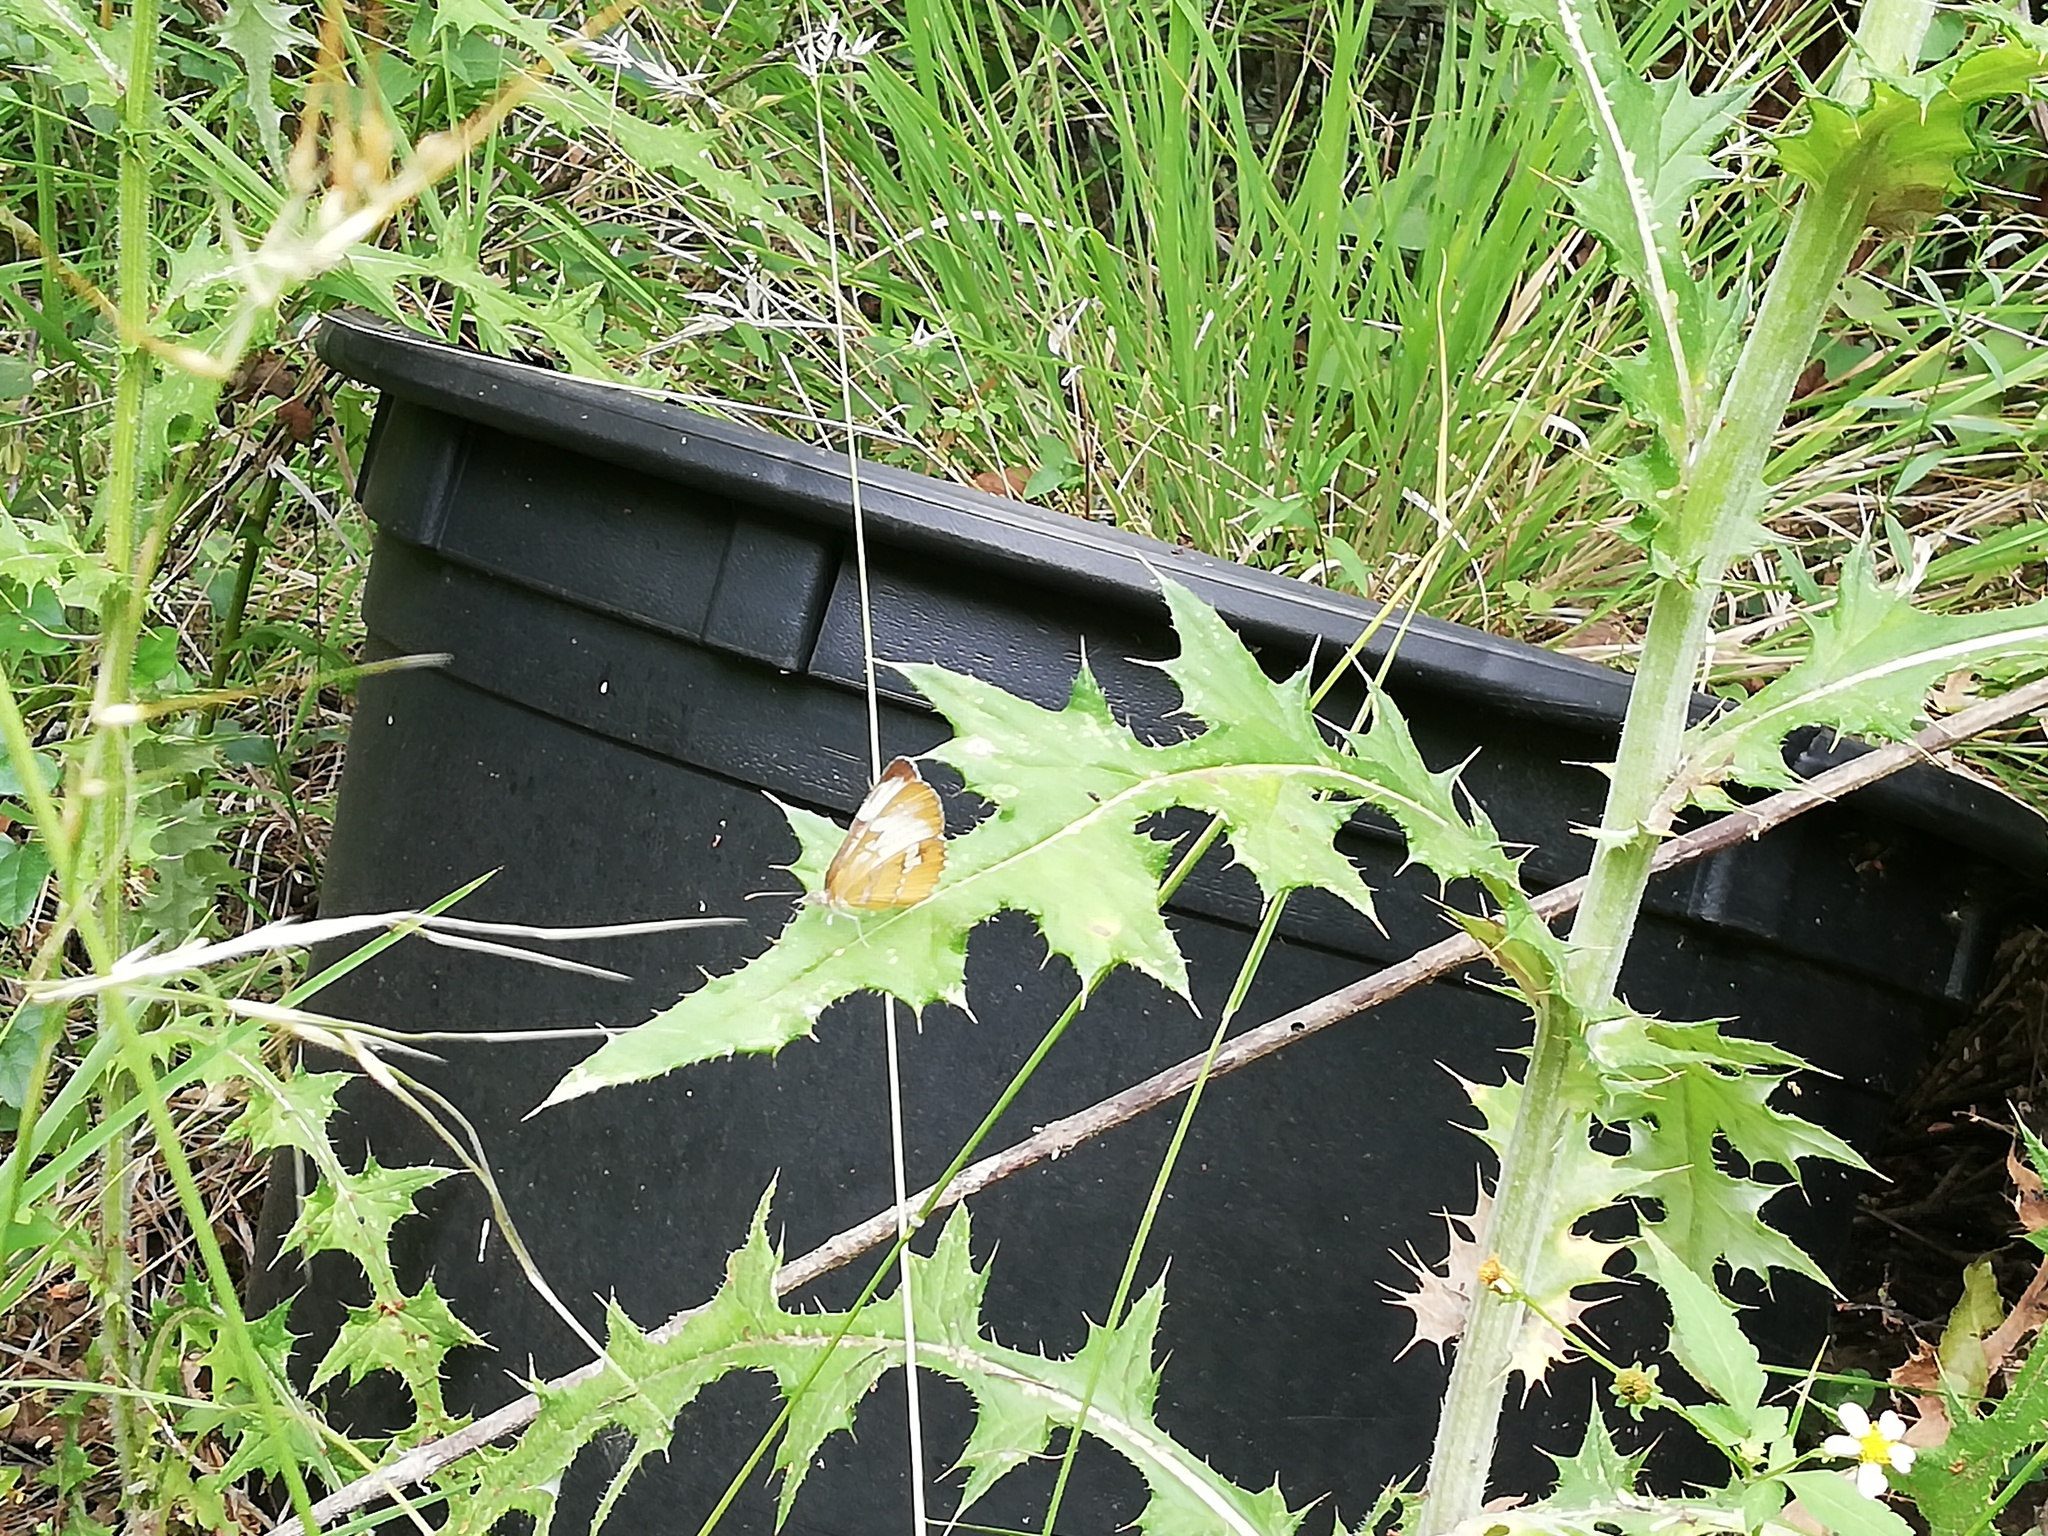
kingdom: Animalia
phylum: Arthropoda
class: Insecta
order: Lepidoptera
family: Nymphalidae
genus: Mestra
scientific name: Mestra amymone
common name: Common mestra
